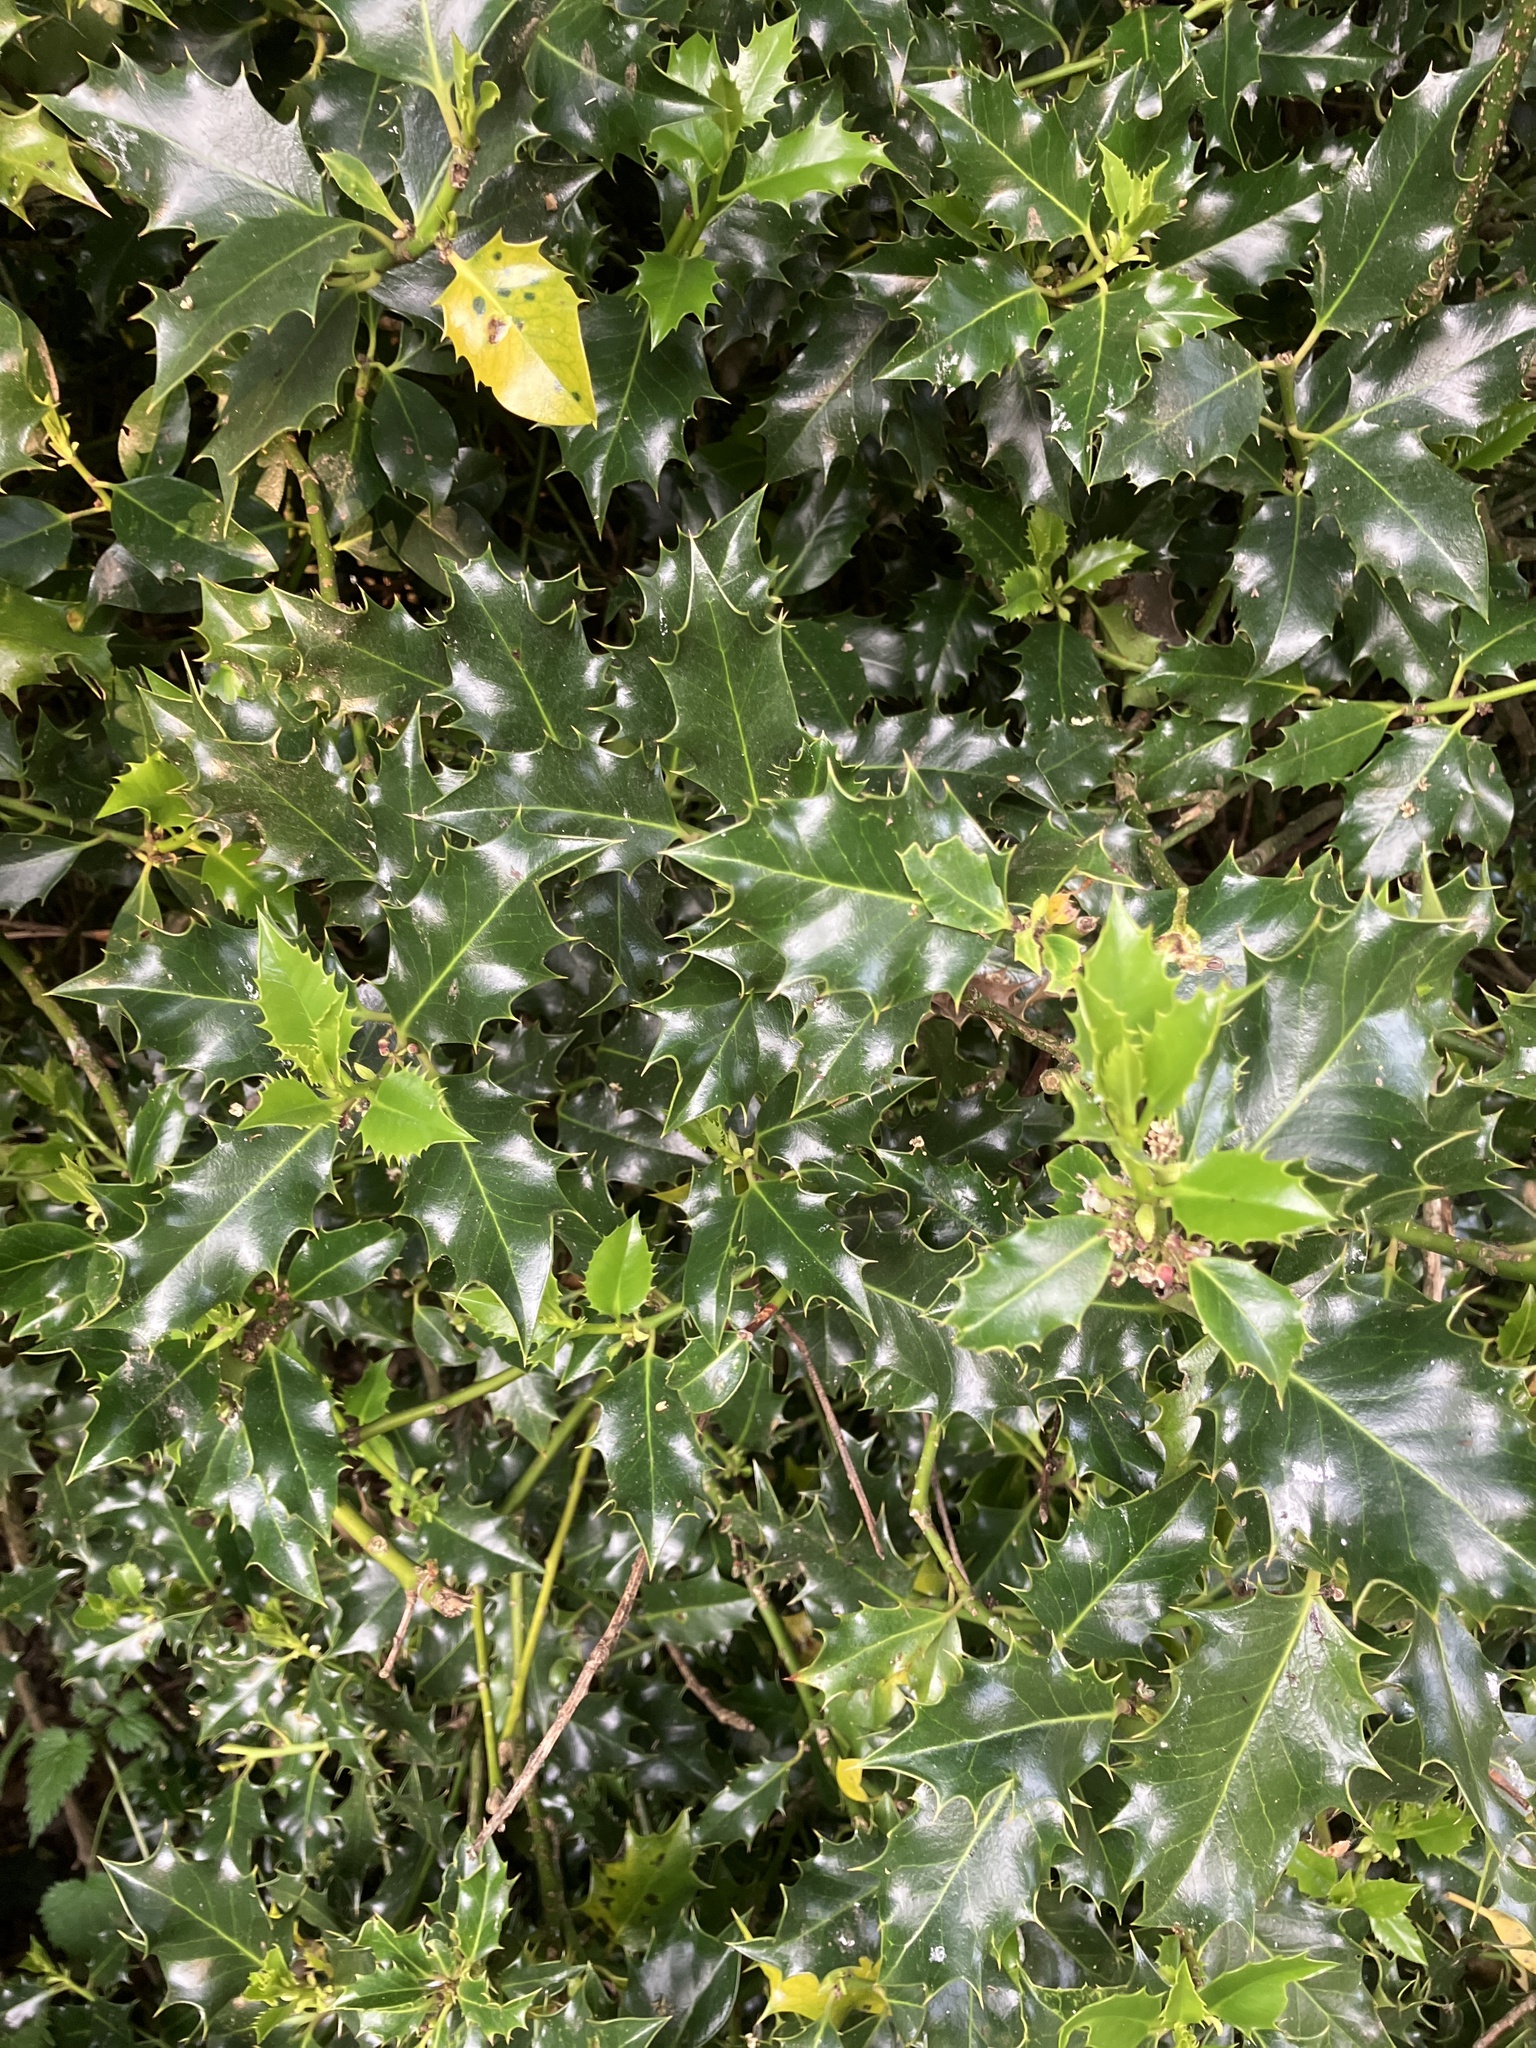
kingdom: Plantae
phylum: Tracheophyta
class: Magnoliopsida
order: Aquifoliales
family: Aquifoliaceae
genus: Ilex
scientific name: Ilex aquifolium
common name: English holly
